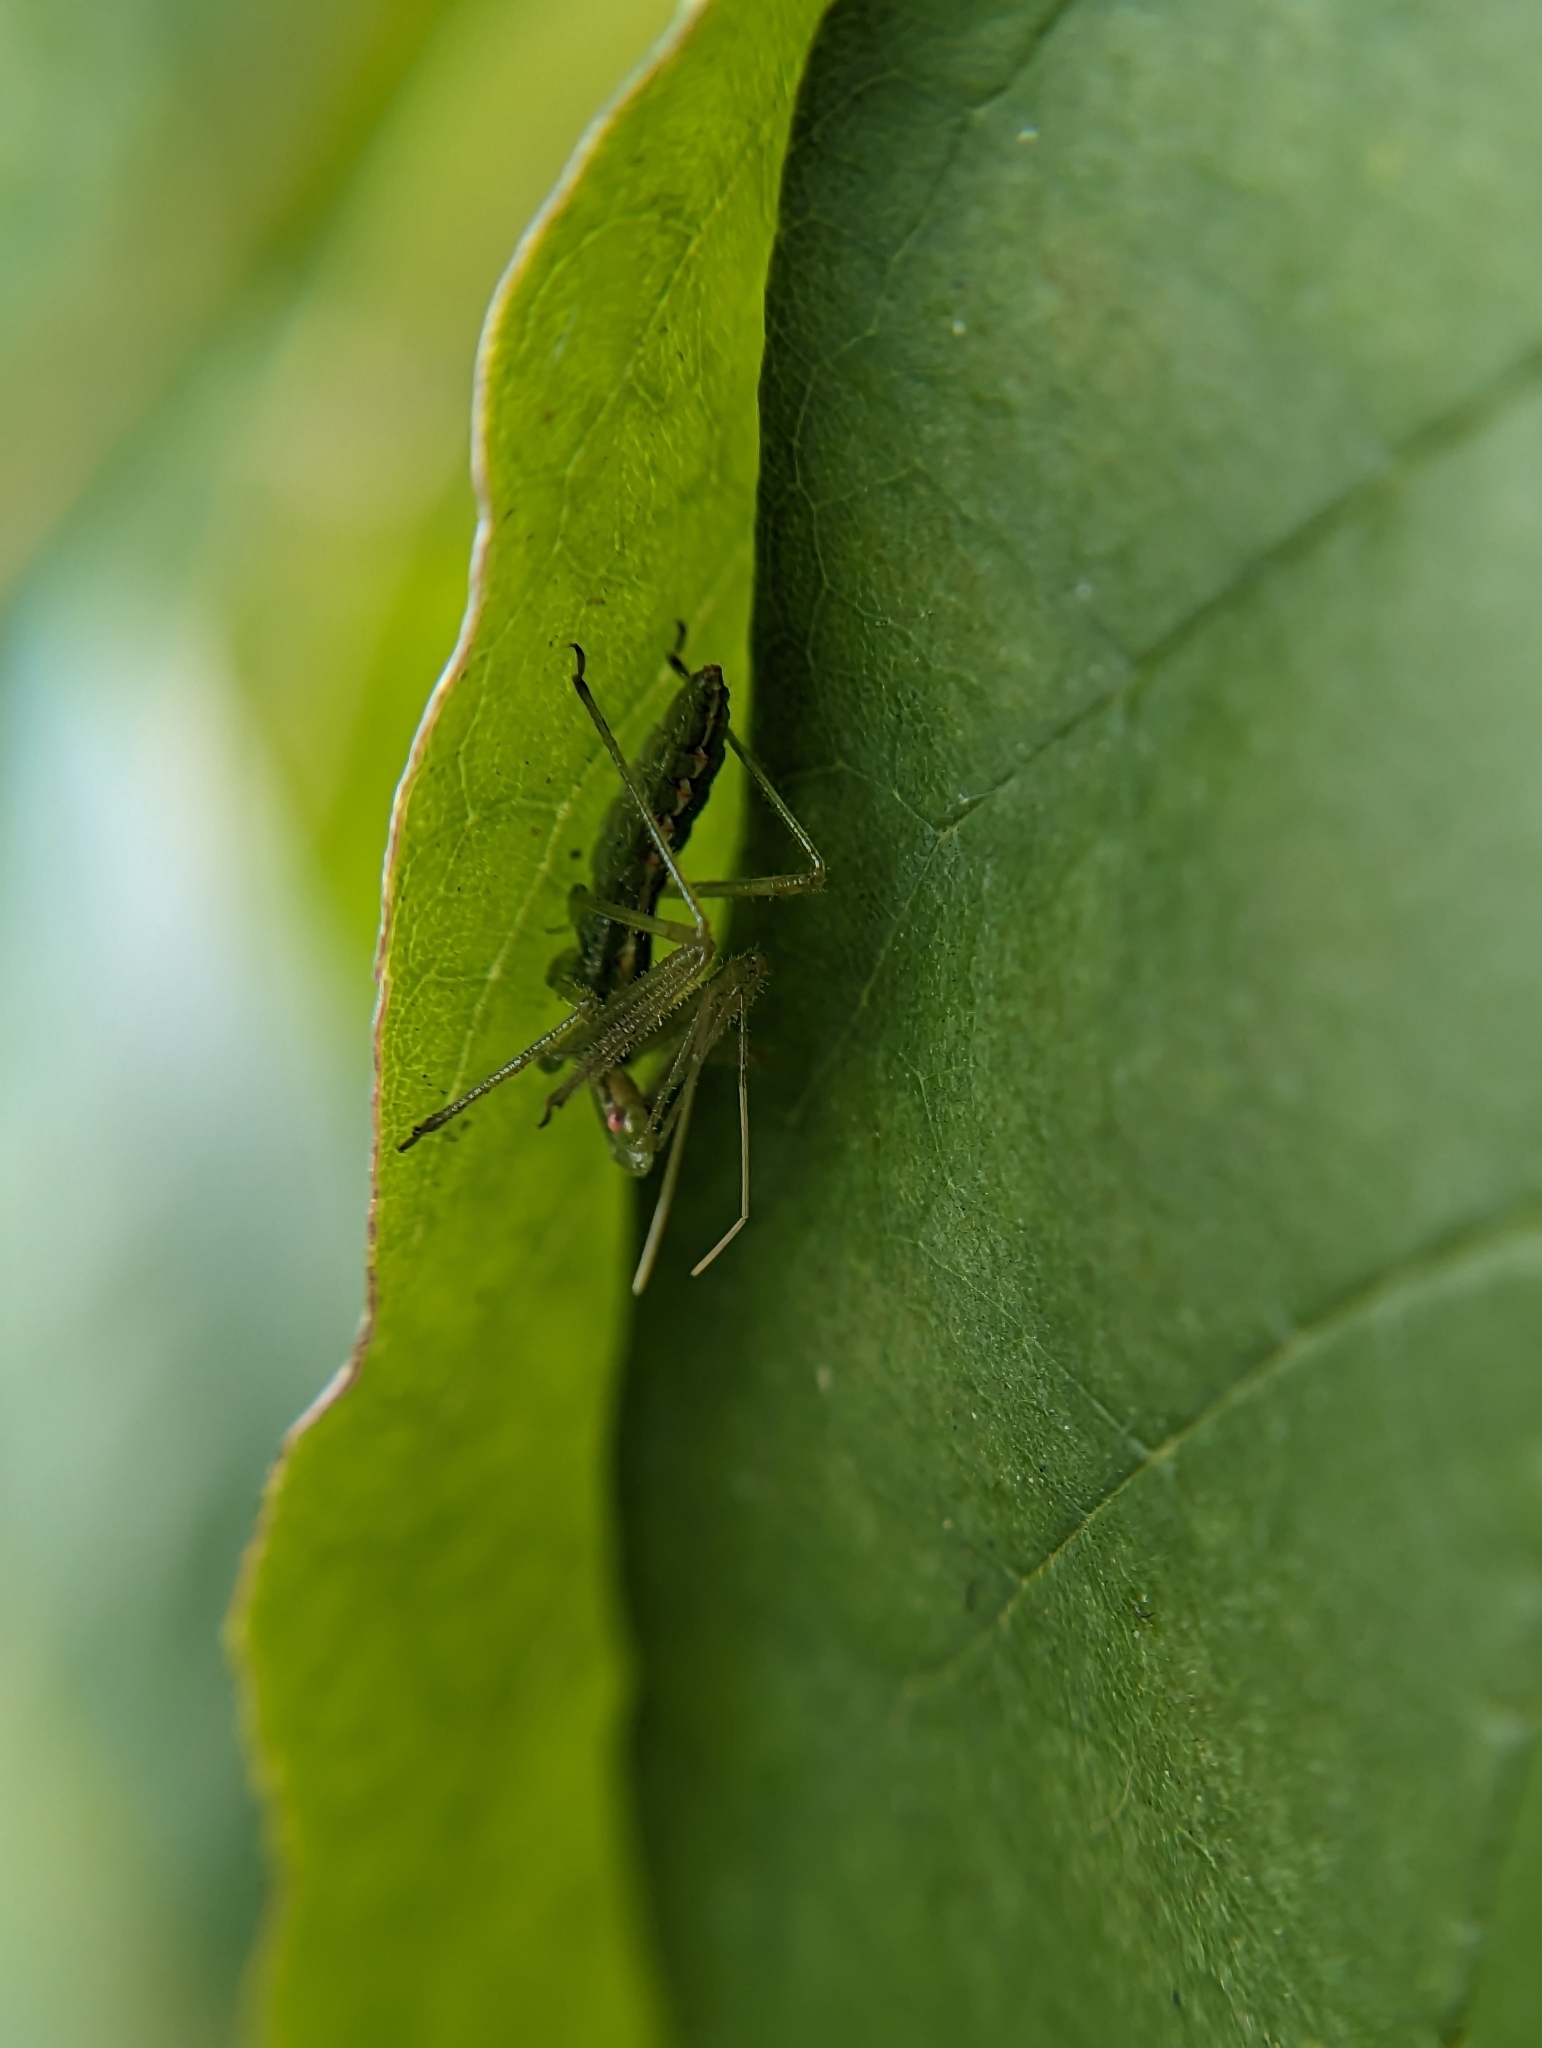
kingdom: Animalia
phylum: Arthropoda
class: Insecta
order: Hemiptera
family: Reduviidae
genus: Zelus
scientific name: Zelus luridus
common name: Pale green assassin bug
